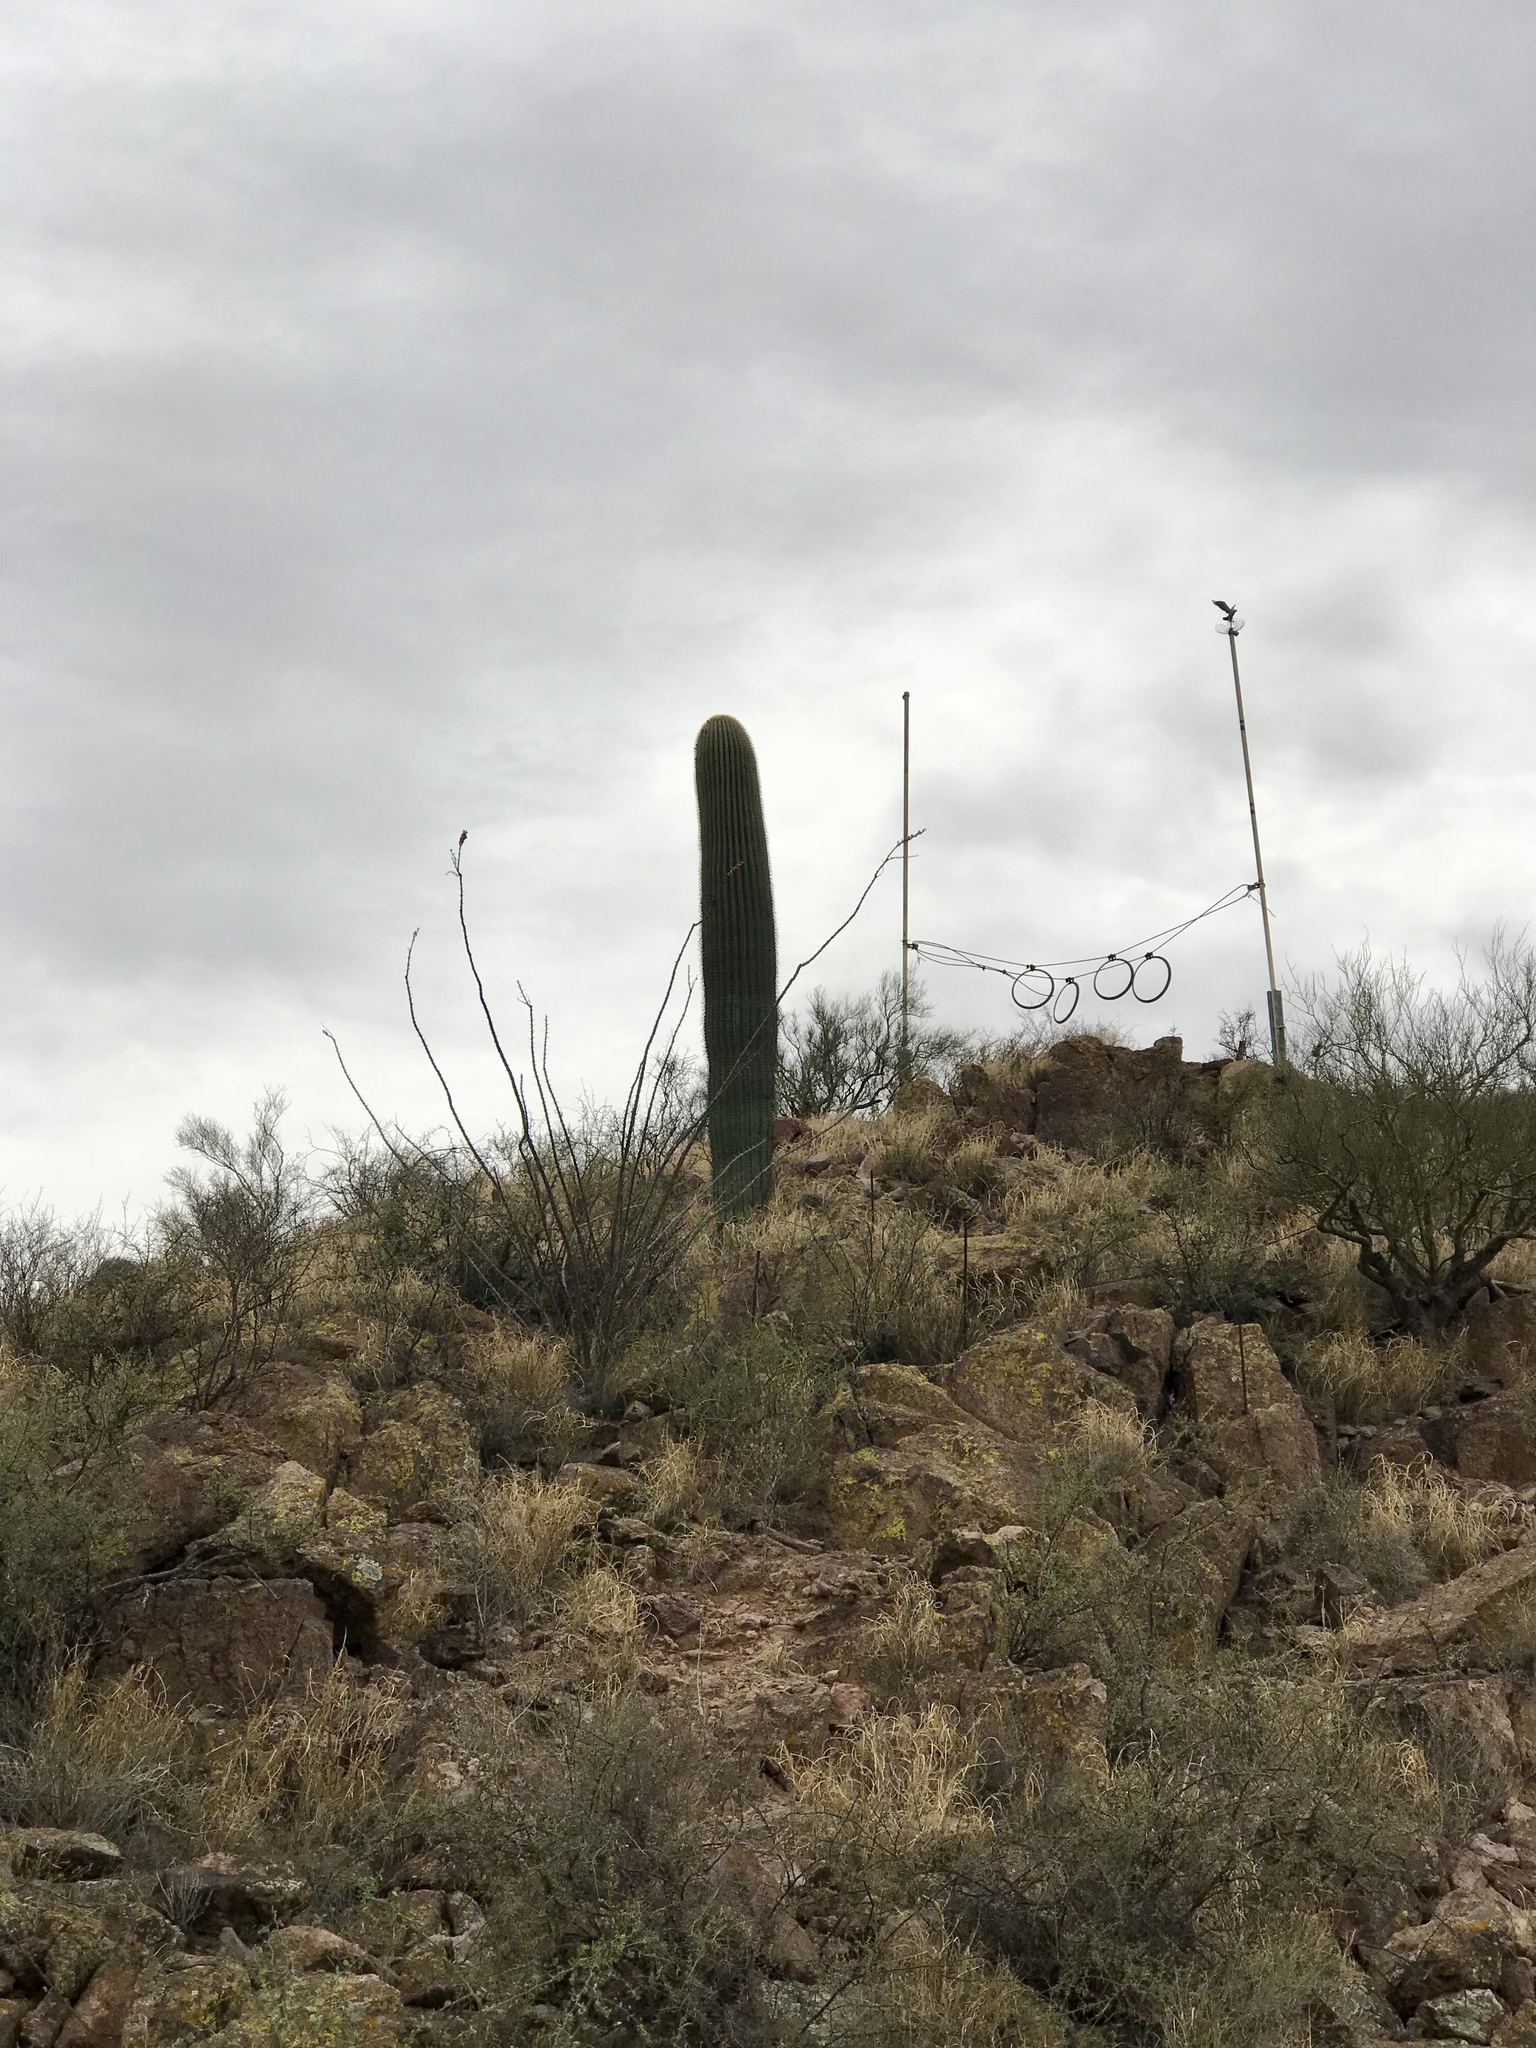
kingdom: Plantae
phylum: Tracheophyta
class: Magnoliopsida
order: Caryophyllales
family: Cactaceae
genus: Carnegiea
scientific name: Carnegiea gigantea
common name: Saguaro
